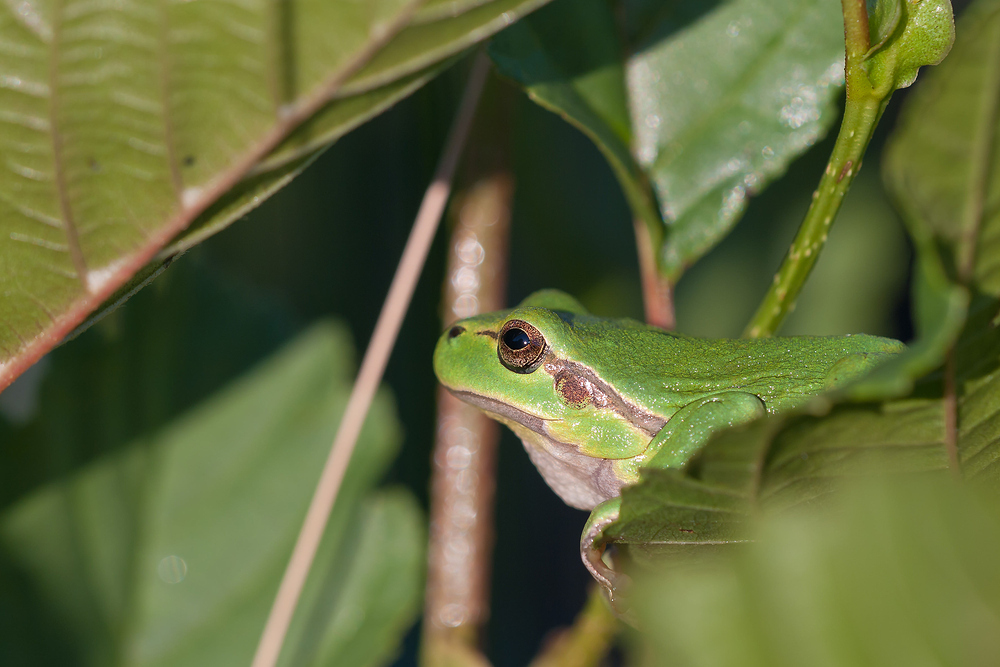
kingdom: Animalia
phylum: Chordata
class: Amphibia
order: Anura
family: Hylidae
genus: Hyla
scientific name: Hyla arborea
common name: Common tree frog
